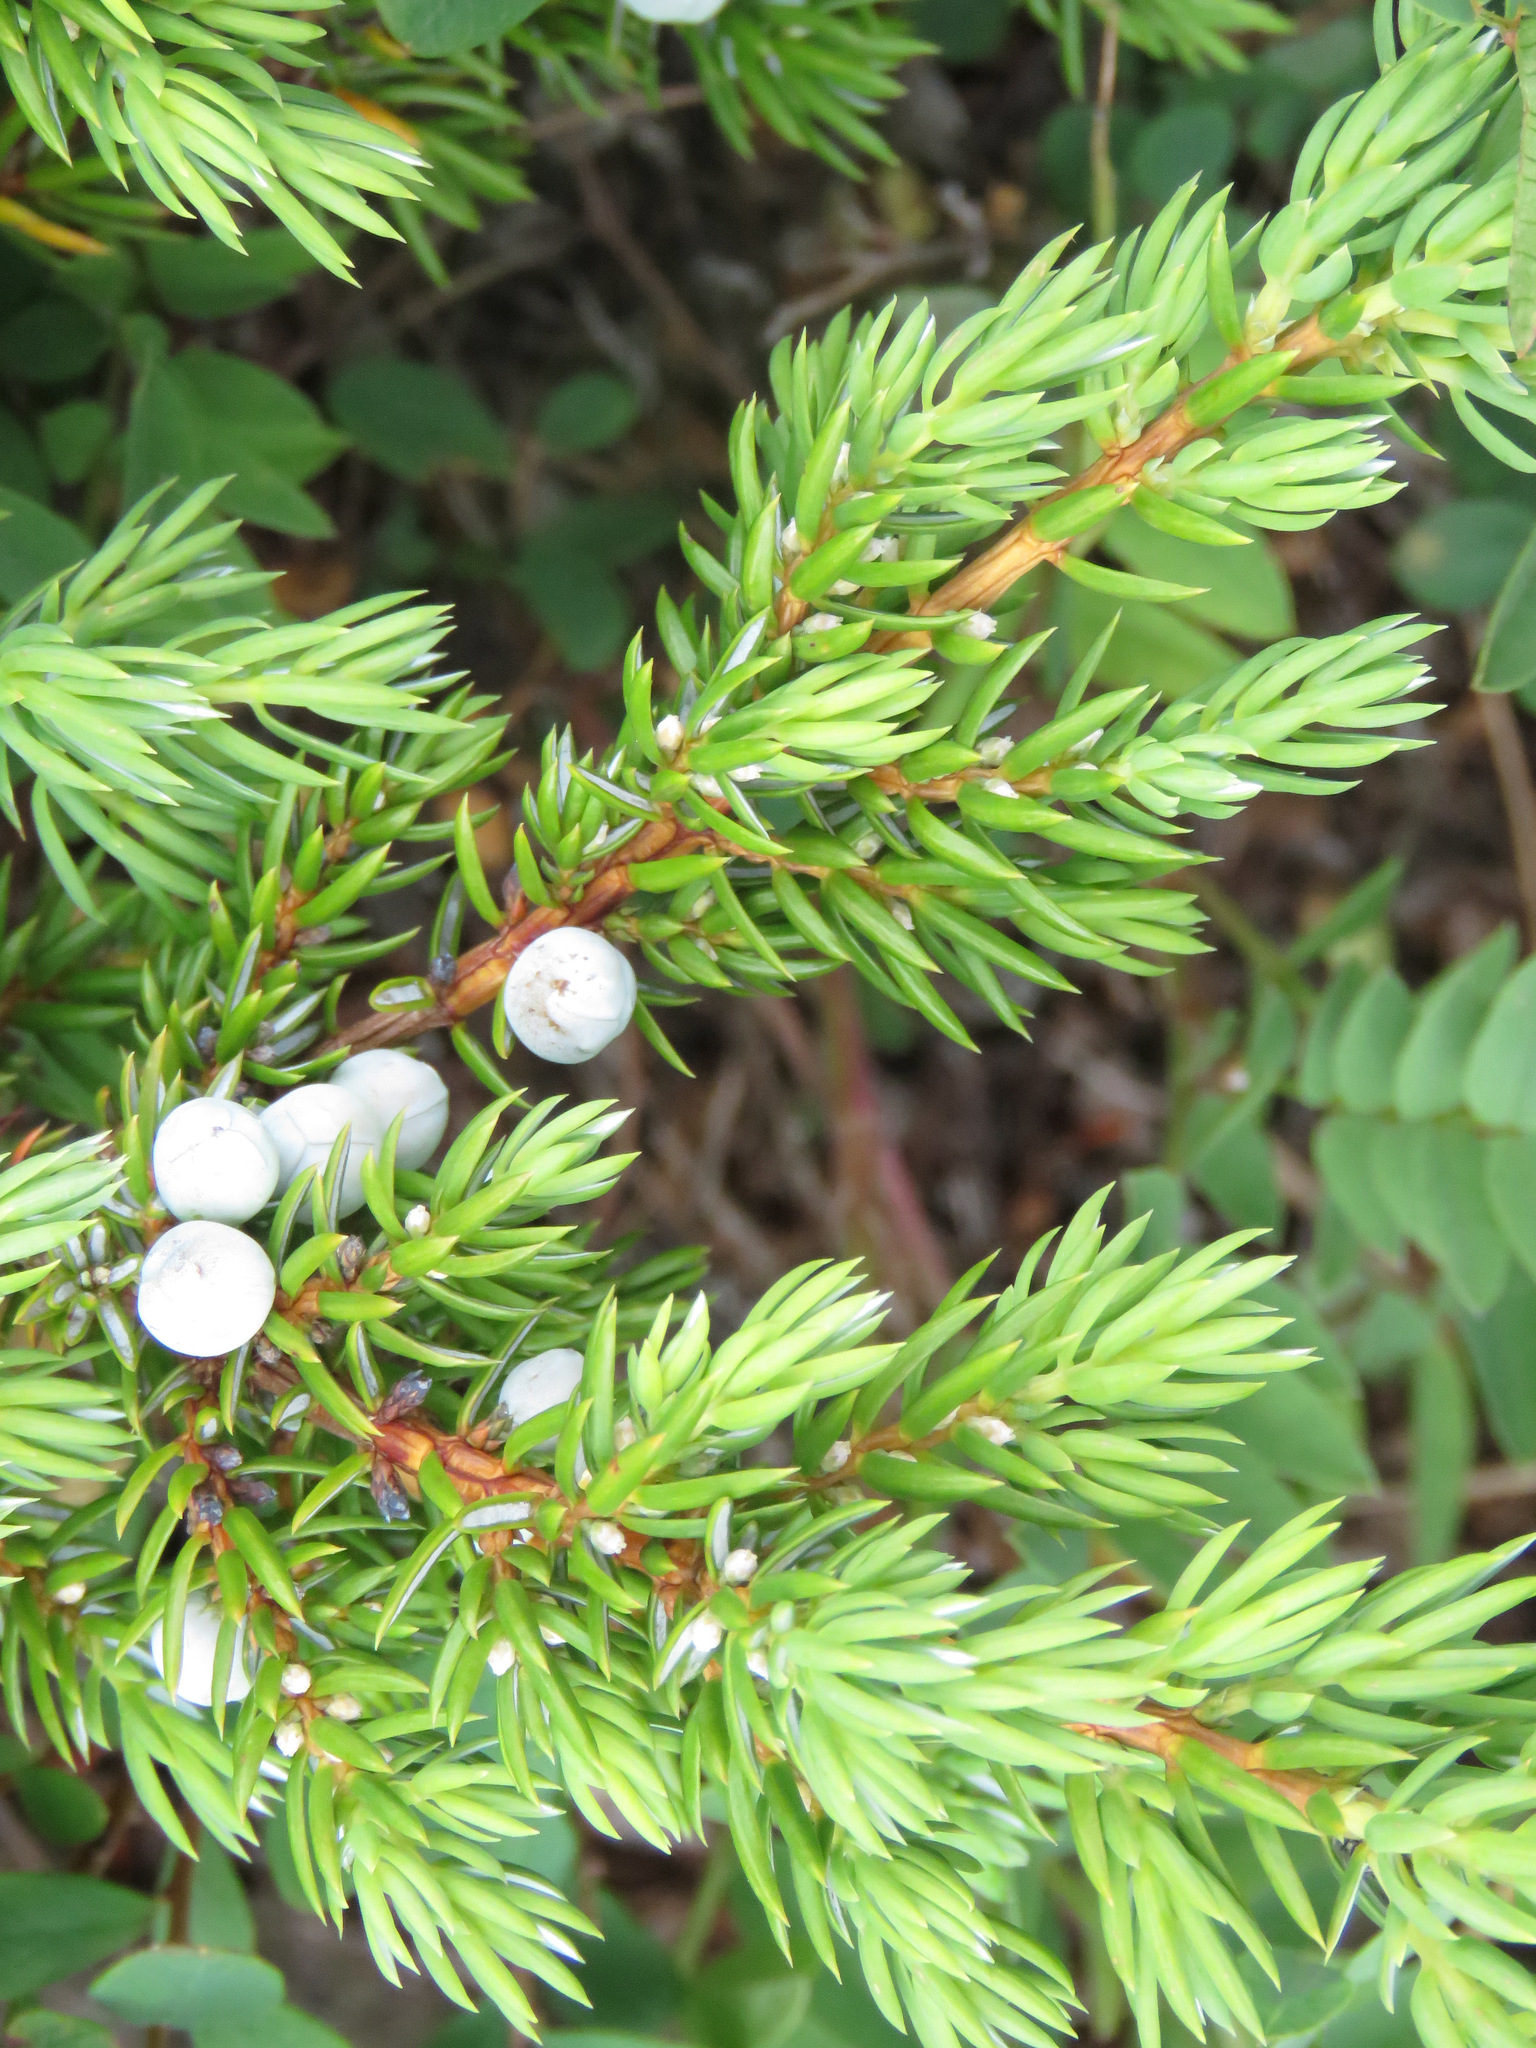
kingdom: Plantae
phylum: Tracheophyta
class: Pinopsida
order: Pinales
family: Cupressaceae
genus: Juniperus
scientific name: Juniperus communis
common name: Common juniper
